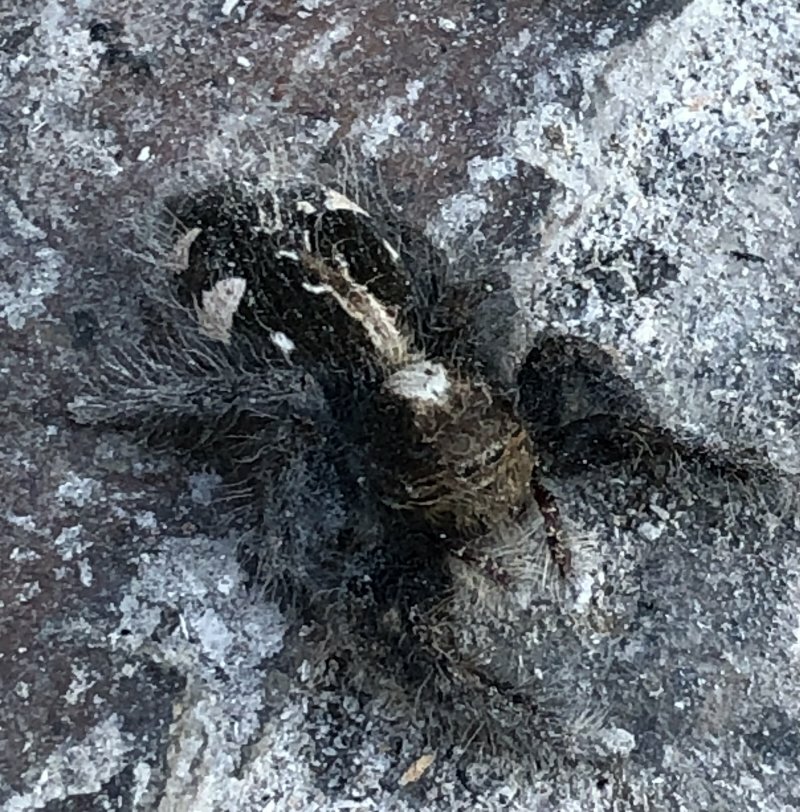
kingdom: Animalia
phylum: Arthropoda
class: Arachnida
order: Araneae
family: Salticidae
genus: Hyllus
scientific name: Hyllus treleaveni
